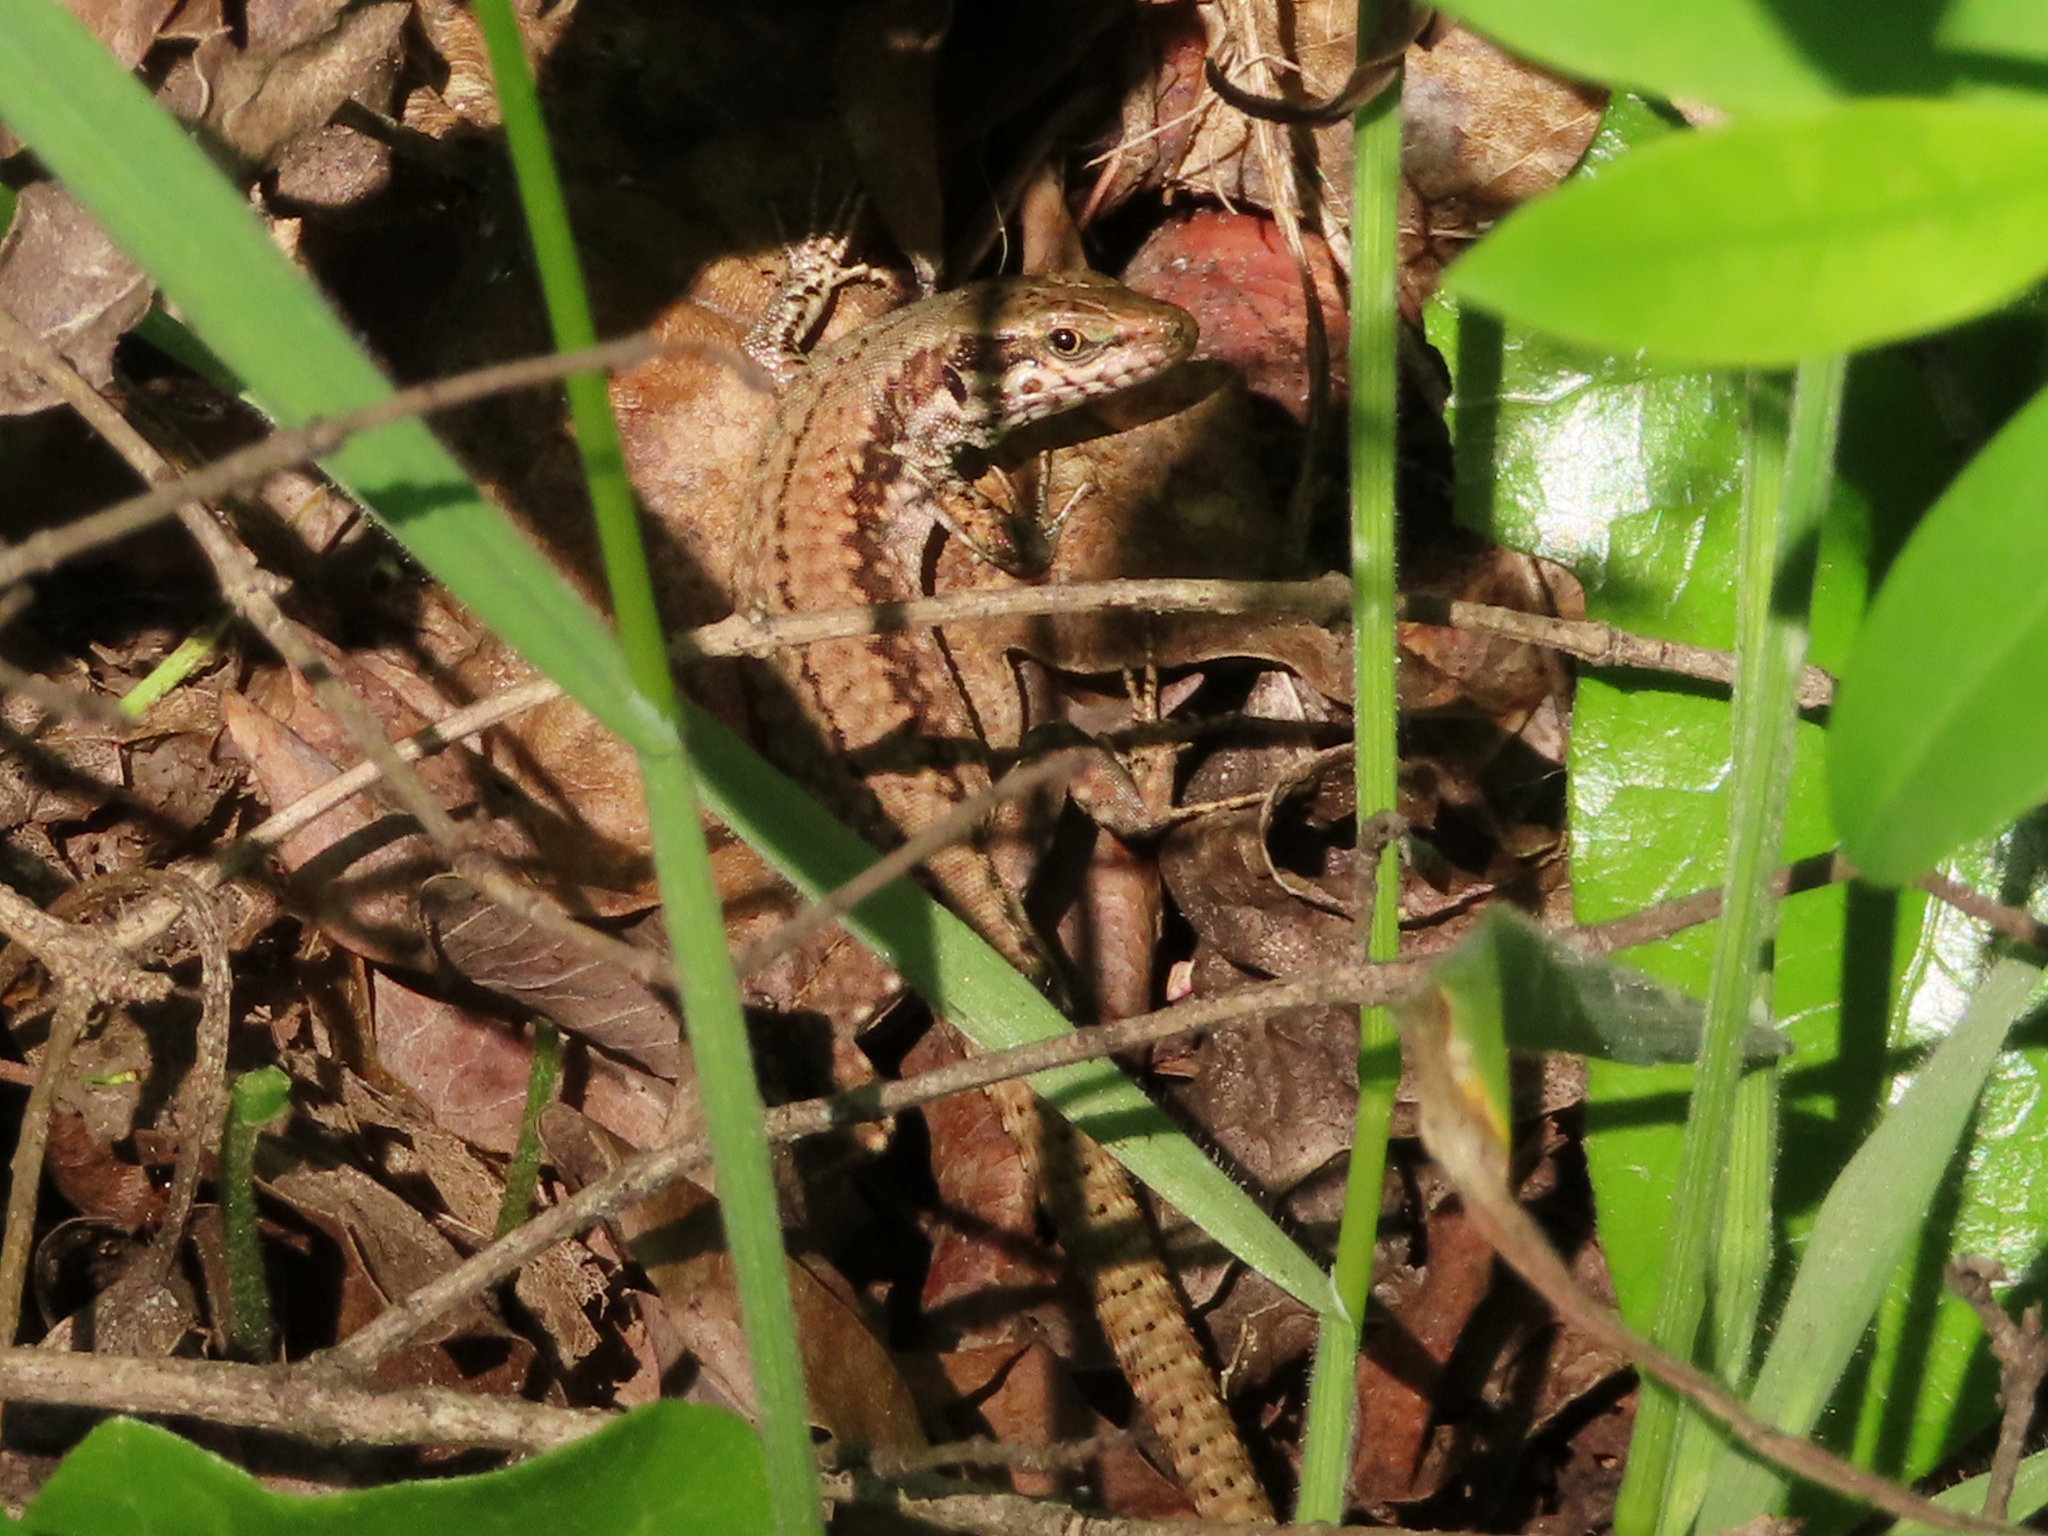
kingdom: Animalia
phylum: Chordata
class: Squamata
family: Lacertidae
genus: Podarcis
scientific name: Podarcis muralis
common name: Common wall lizard
